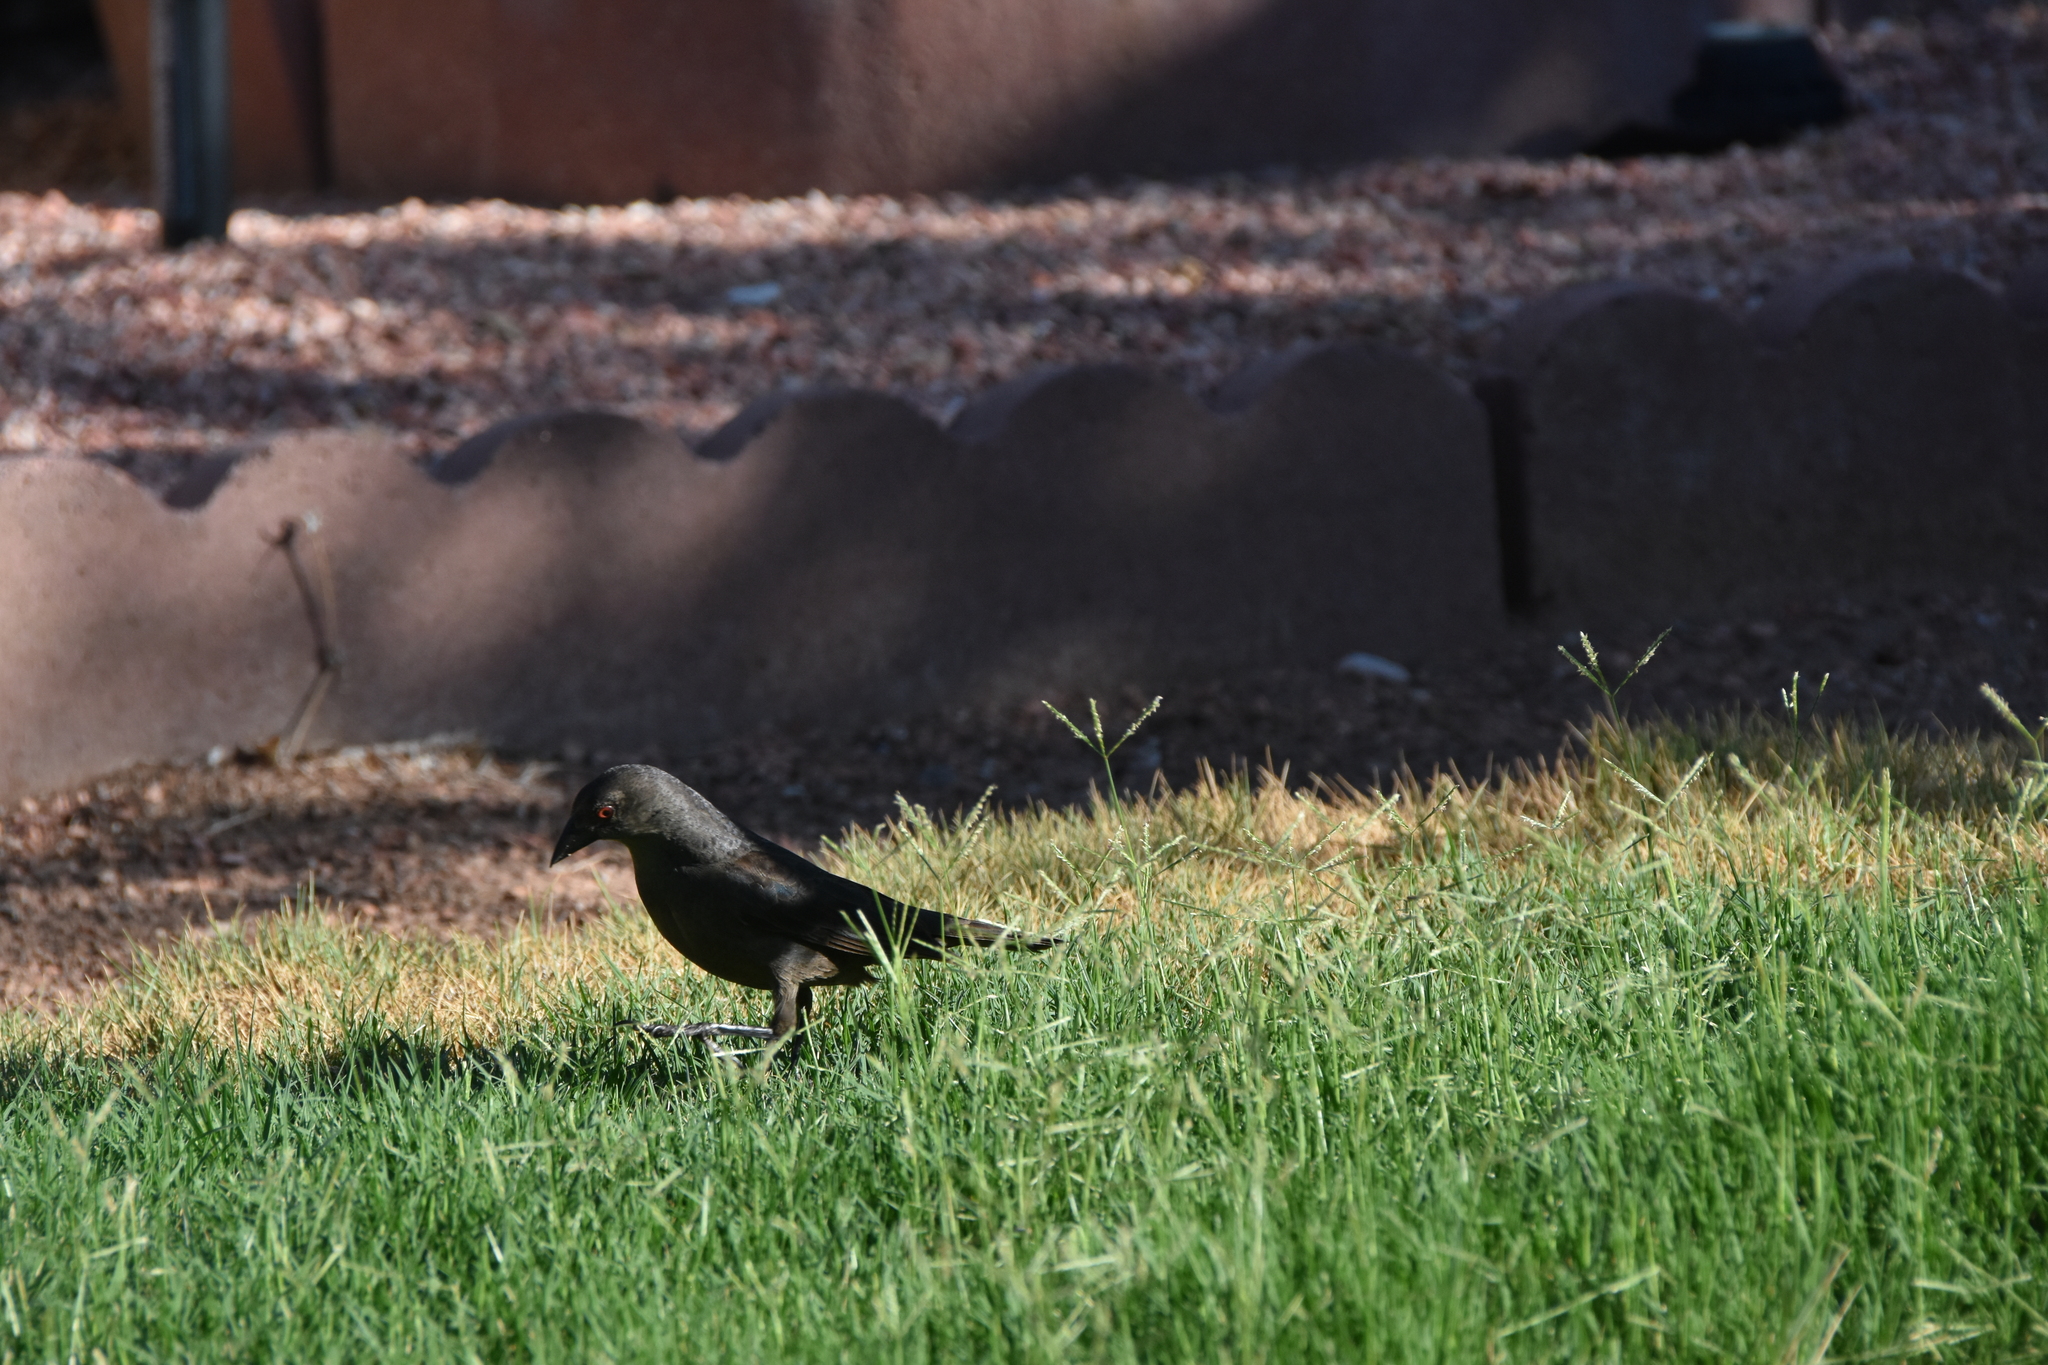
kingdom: Animalia
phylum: Chordata
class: Aves
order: Passeriformes
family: Icteridae
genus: Molothrus
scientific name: Molothrus aeneus
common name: Bronzed cowbird
